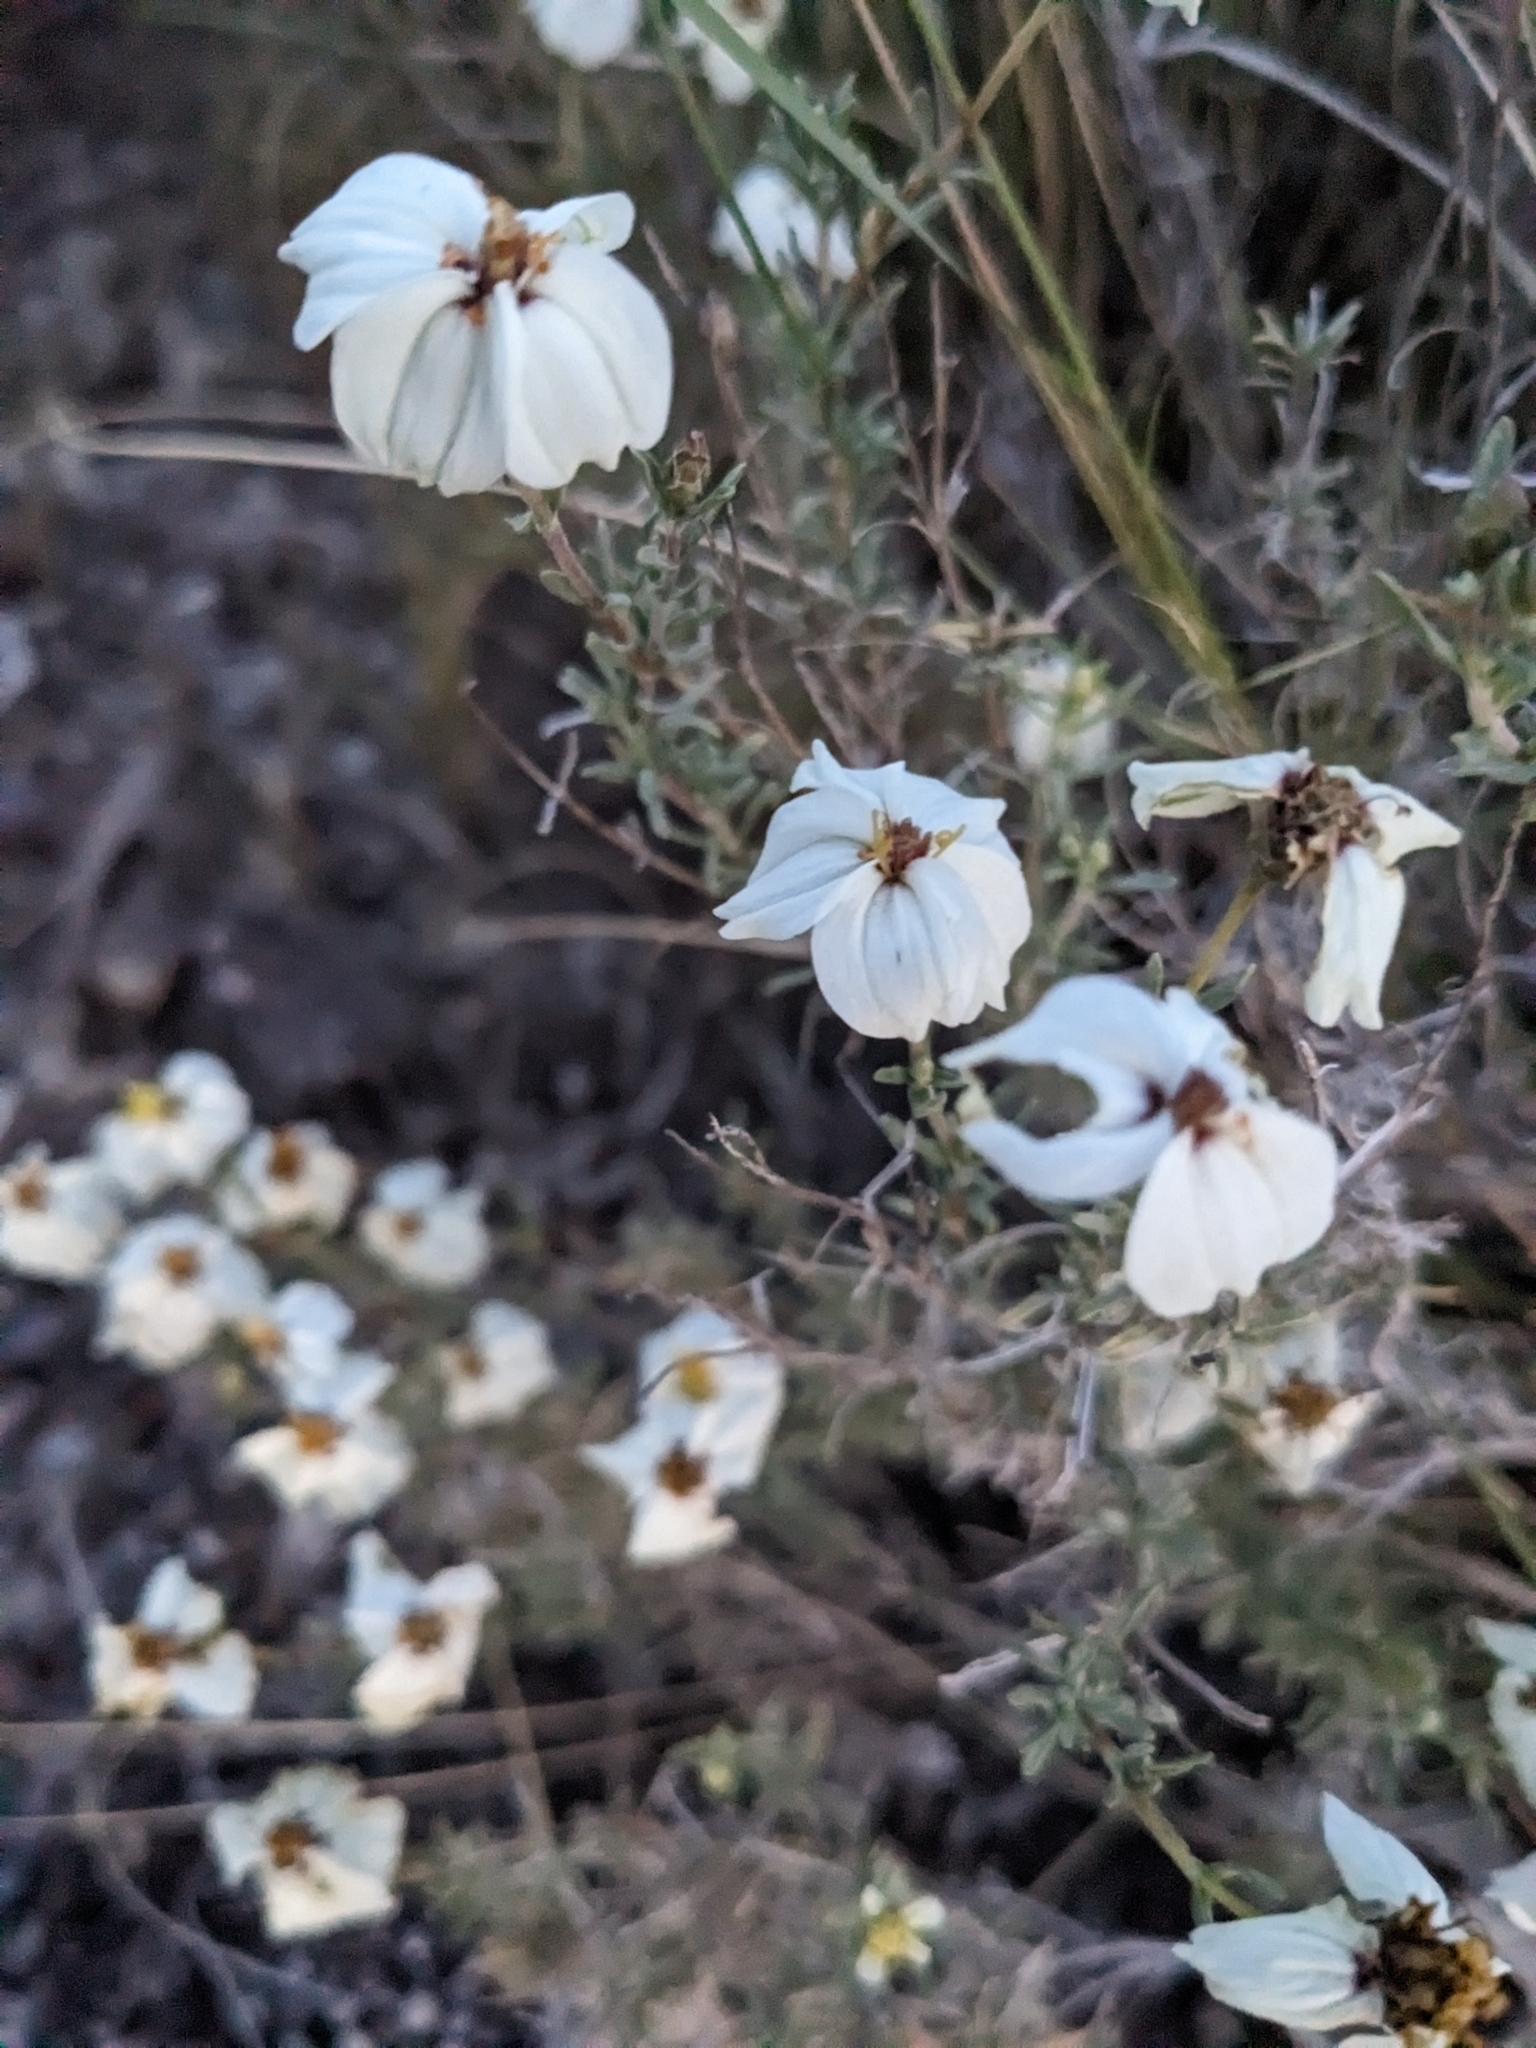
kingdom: Plantae
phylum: Tracheophyta
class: Magnoliopsida
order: Asterales
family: Asteraceae
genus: Zinnia
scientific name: Zinnia acerosa
